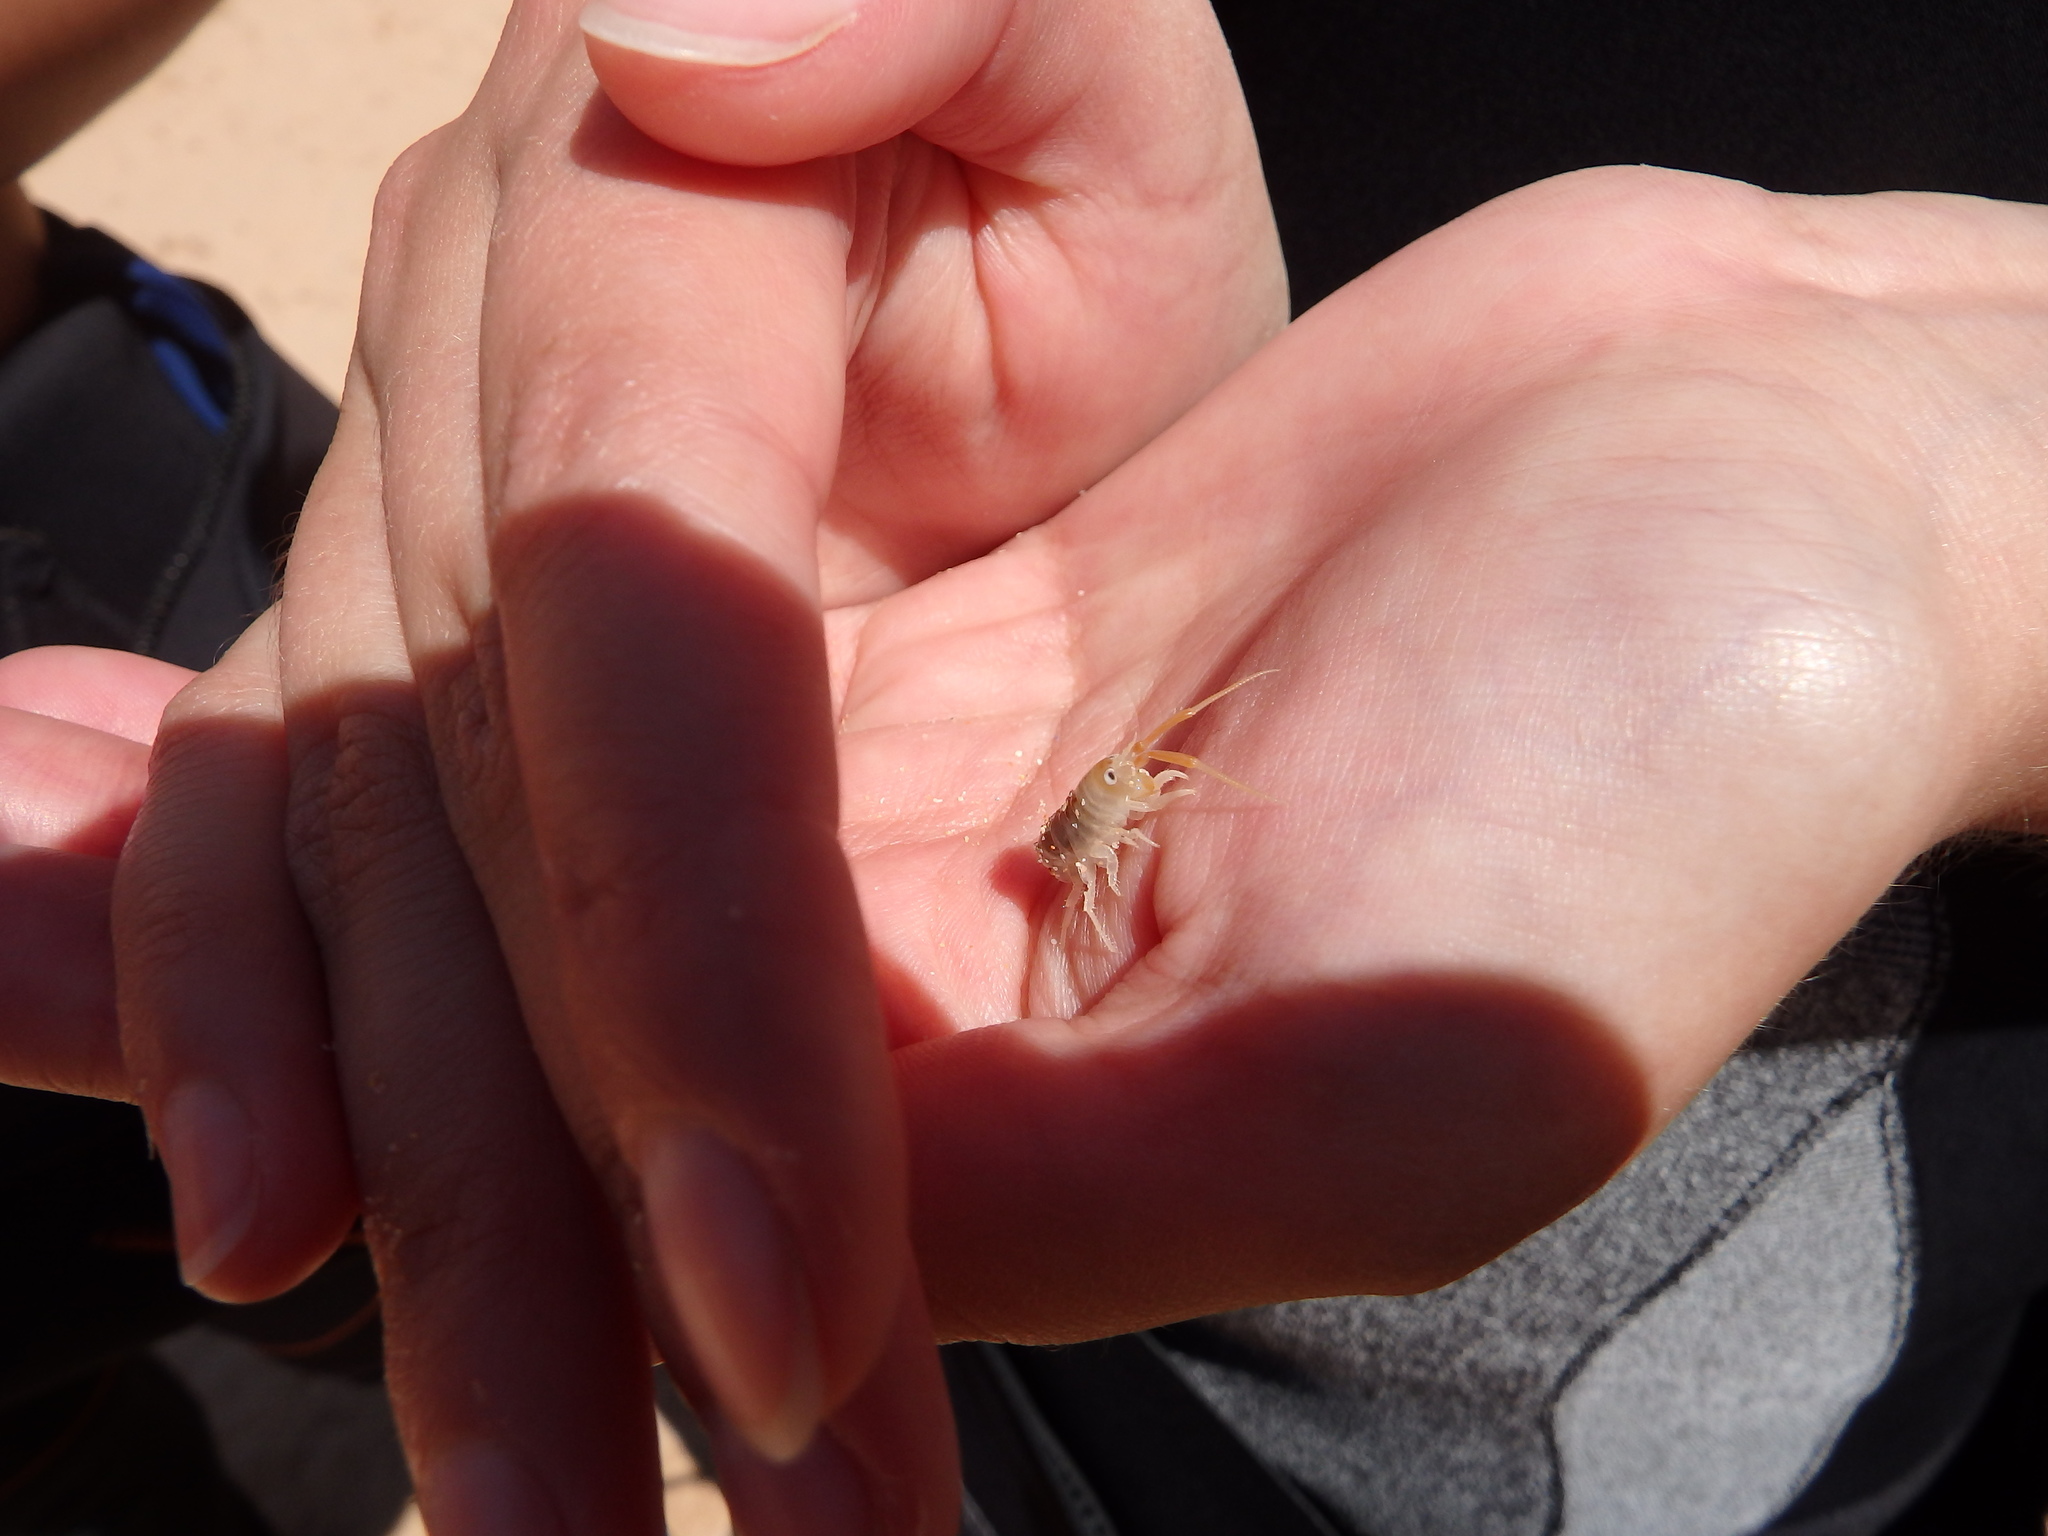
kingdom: Animalia
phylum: Arthropoda
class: Malacostraca
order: Amphipoda
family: Talitridae
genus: Talitrus
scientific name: Talitrus saltator
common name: Sand hopper
